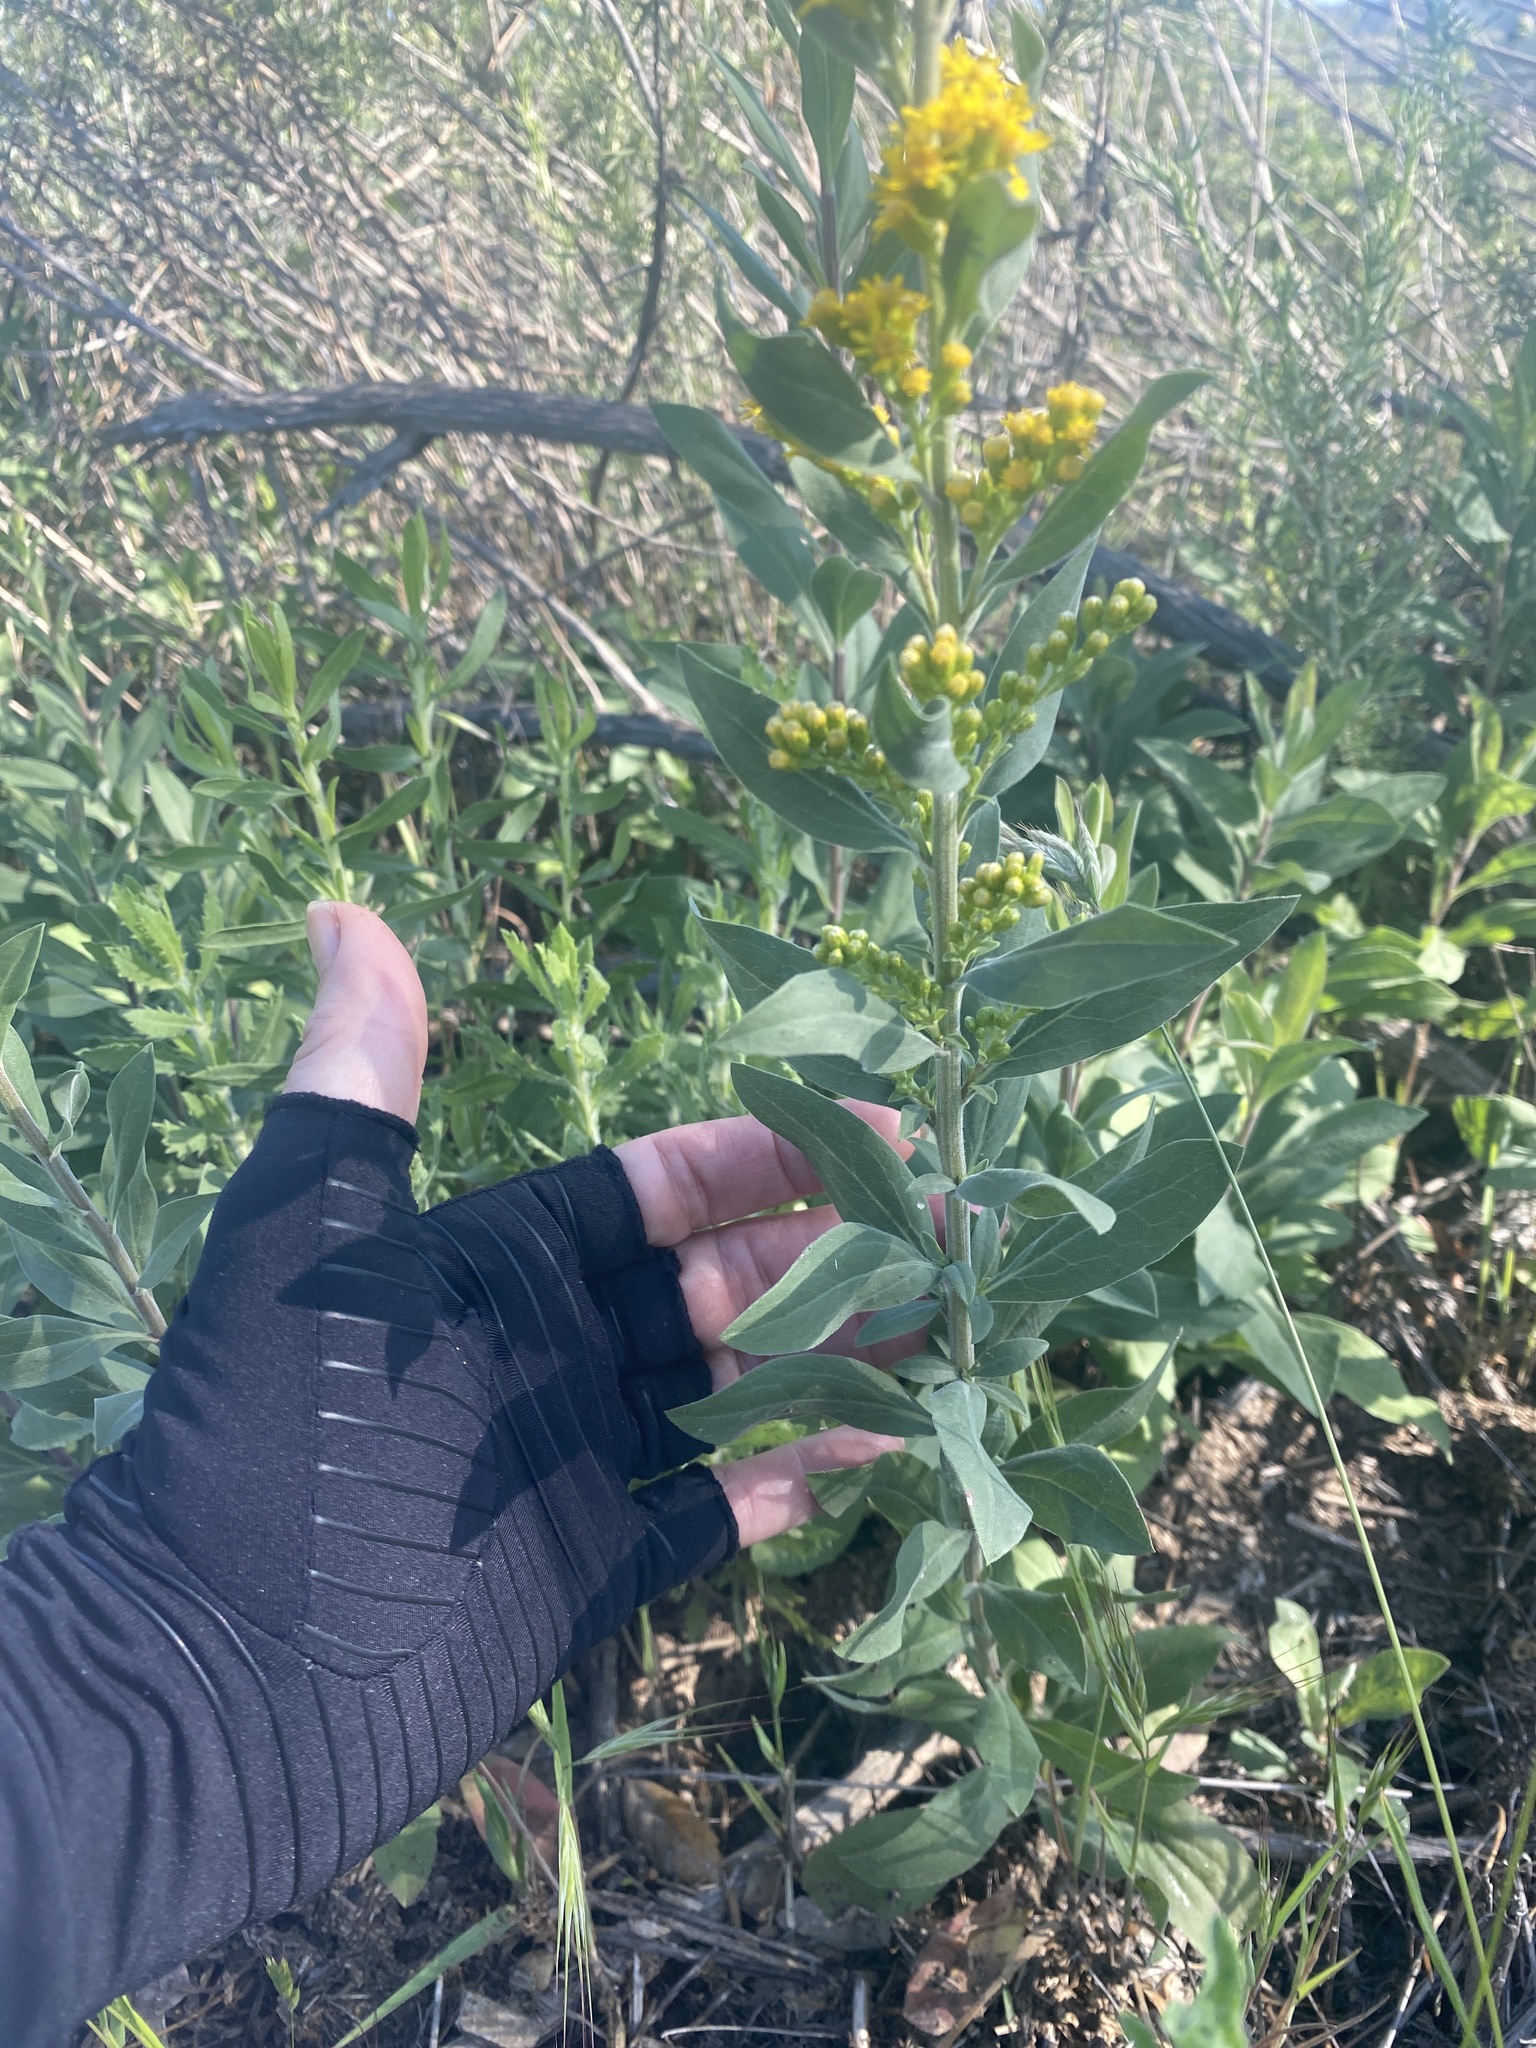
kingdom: Plantae
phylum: Tracheophyta
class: Magnoliopsida
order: Asterales
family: Asteraceae
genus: Solidago
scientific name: Solidago velutina
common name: Three-nerve goldenrod
